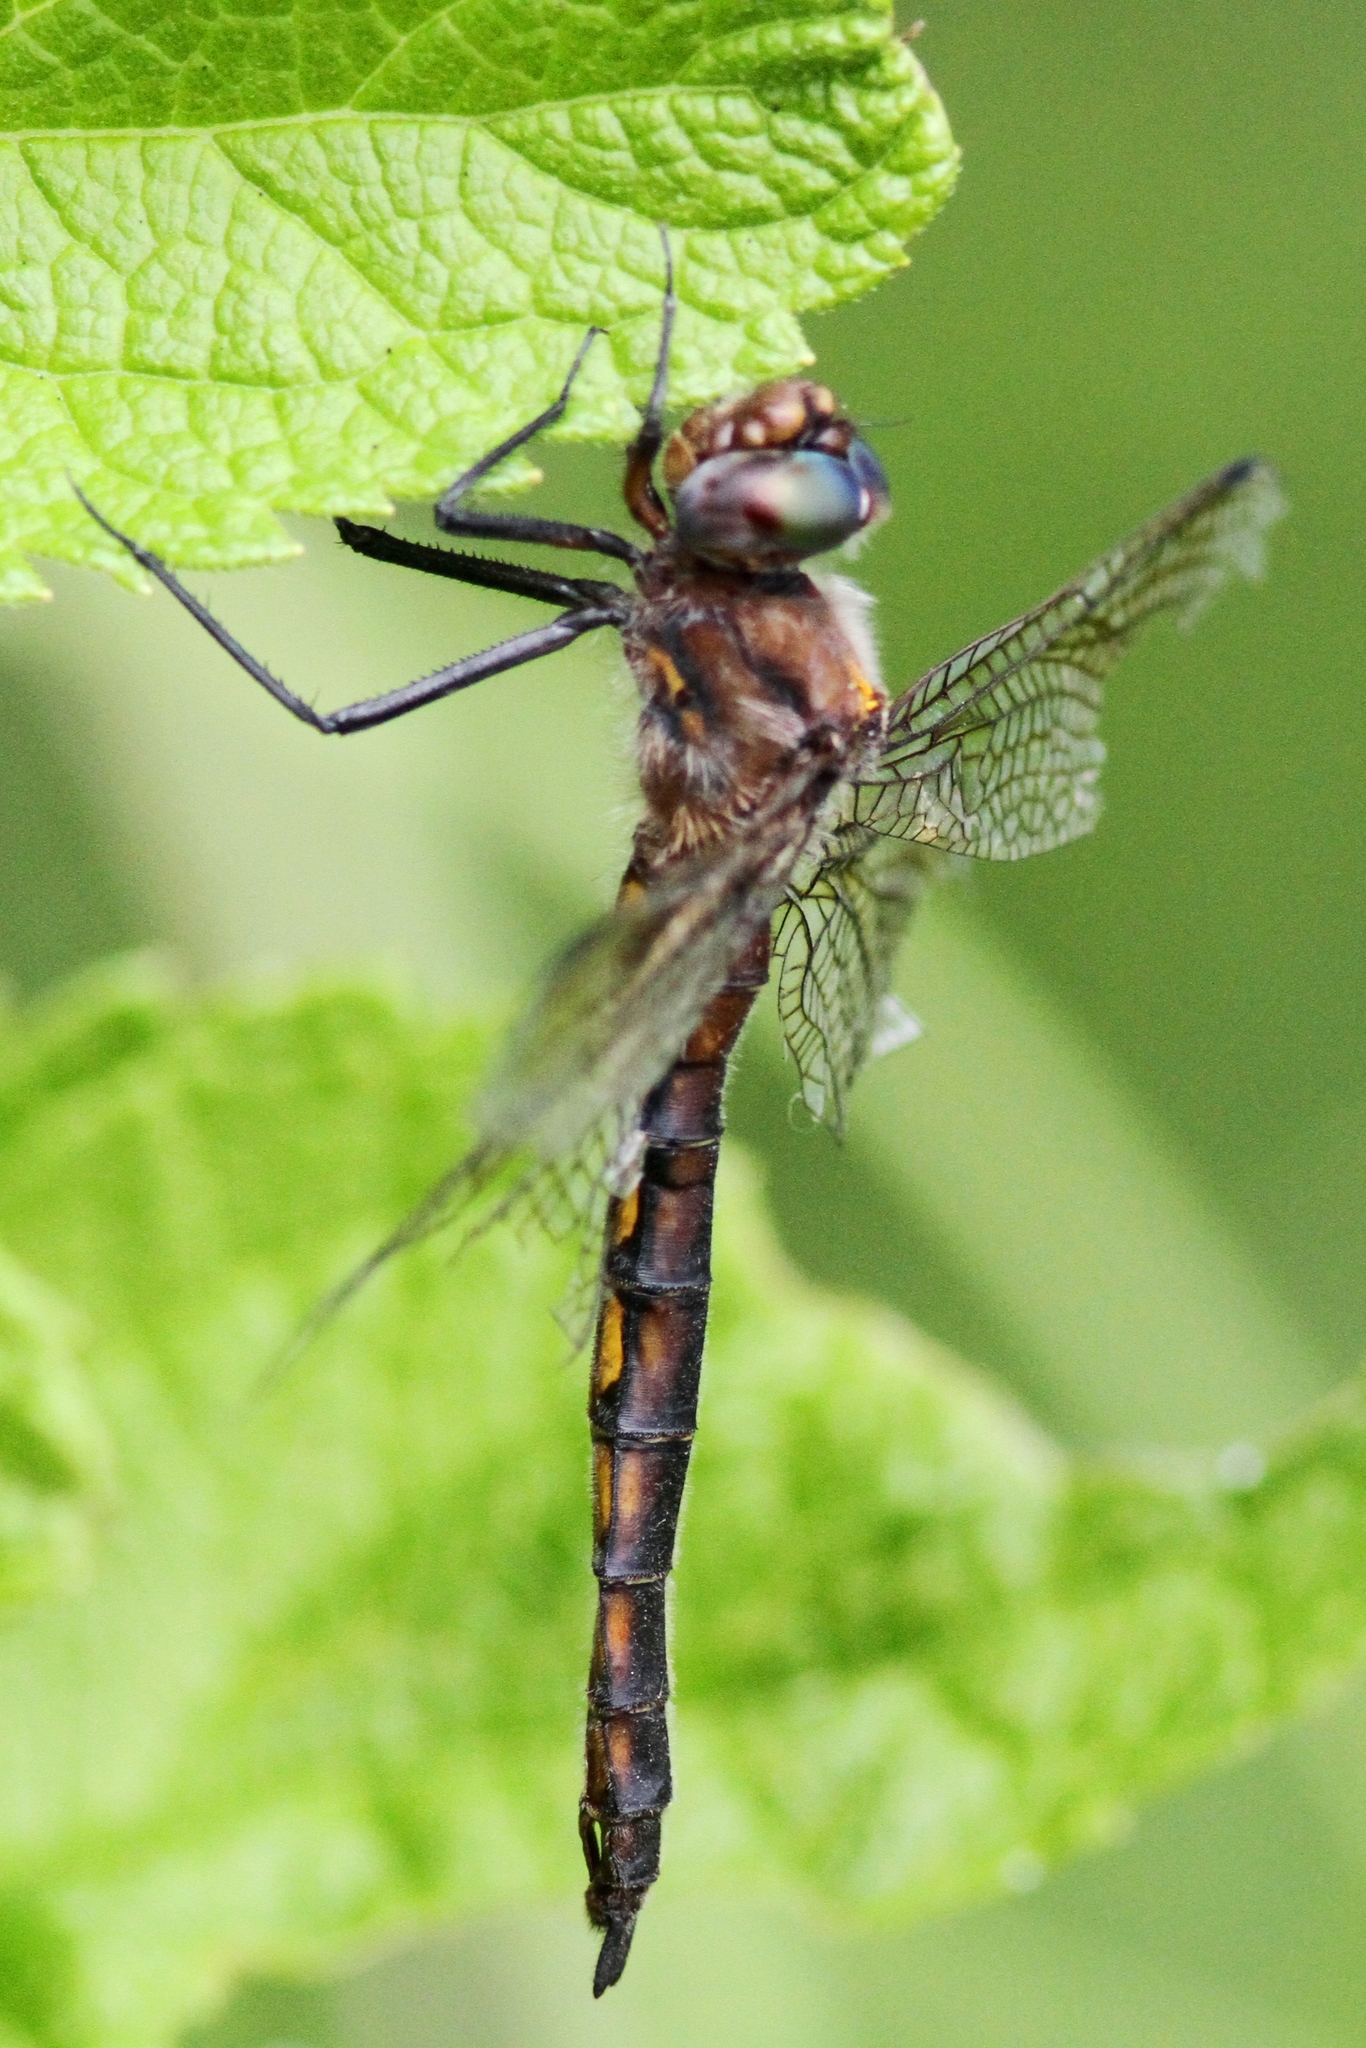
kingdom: Animalia
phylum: Arthropoda
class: Insecta
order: Odonata
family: Corduliidae
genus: Epitheca
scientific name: Epitheca canis
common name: Beaverpond baskettail
